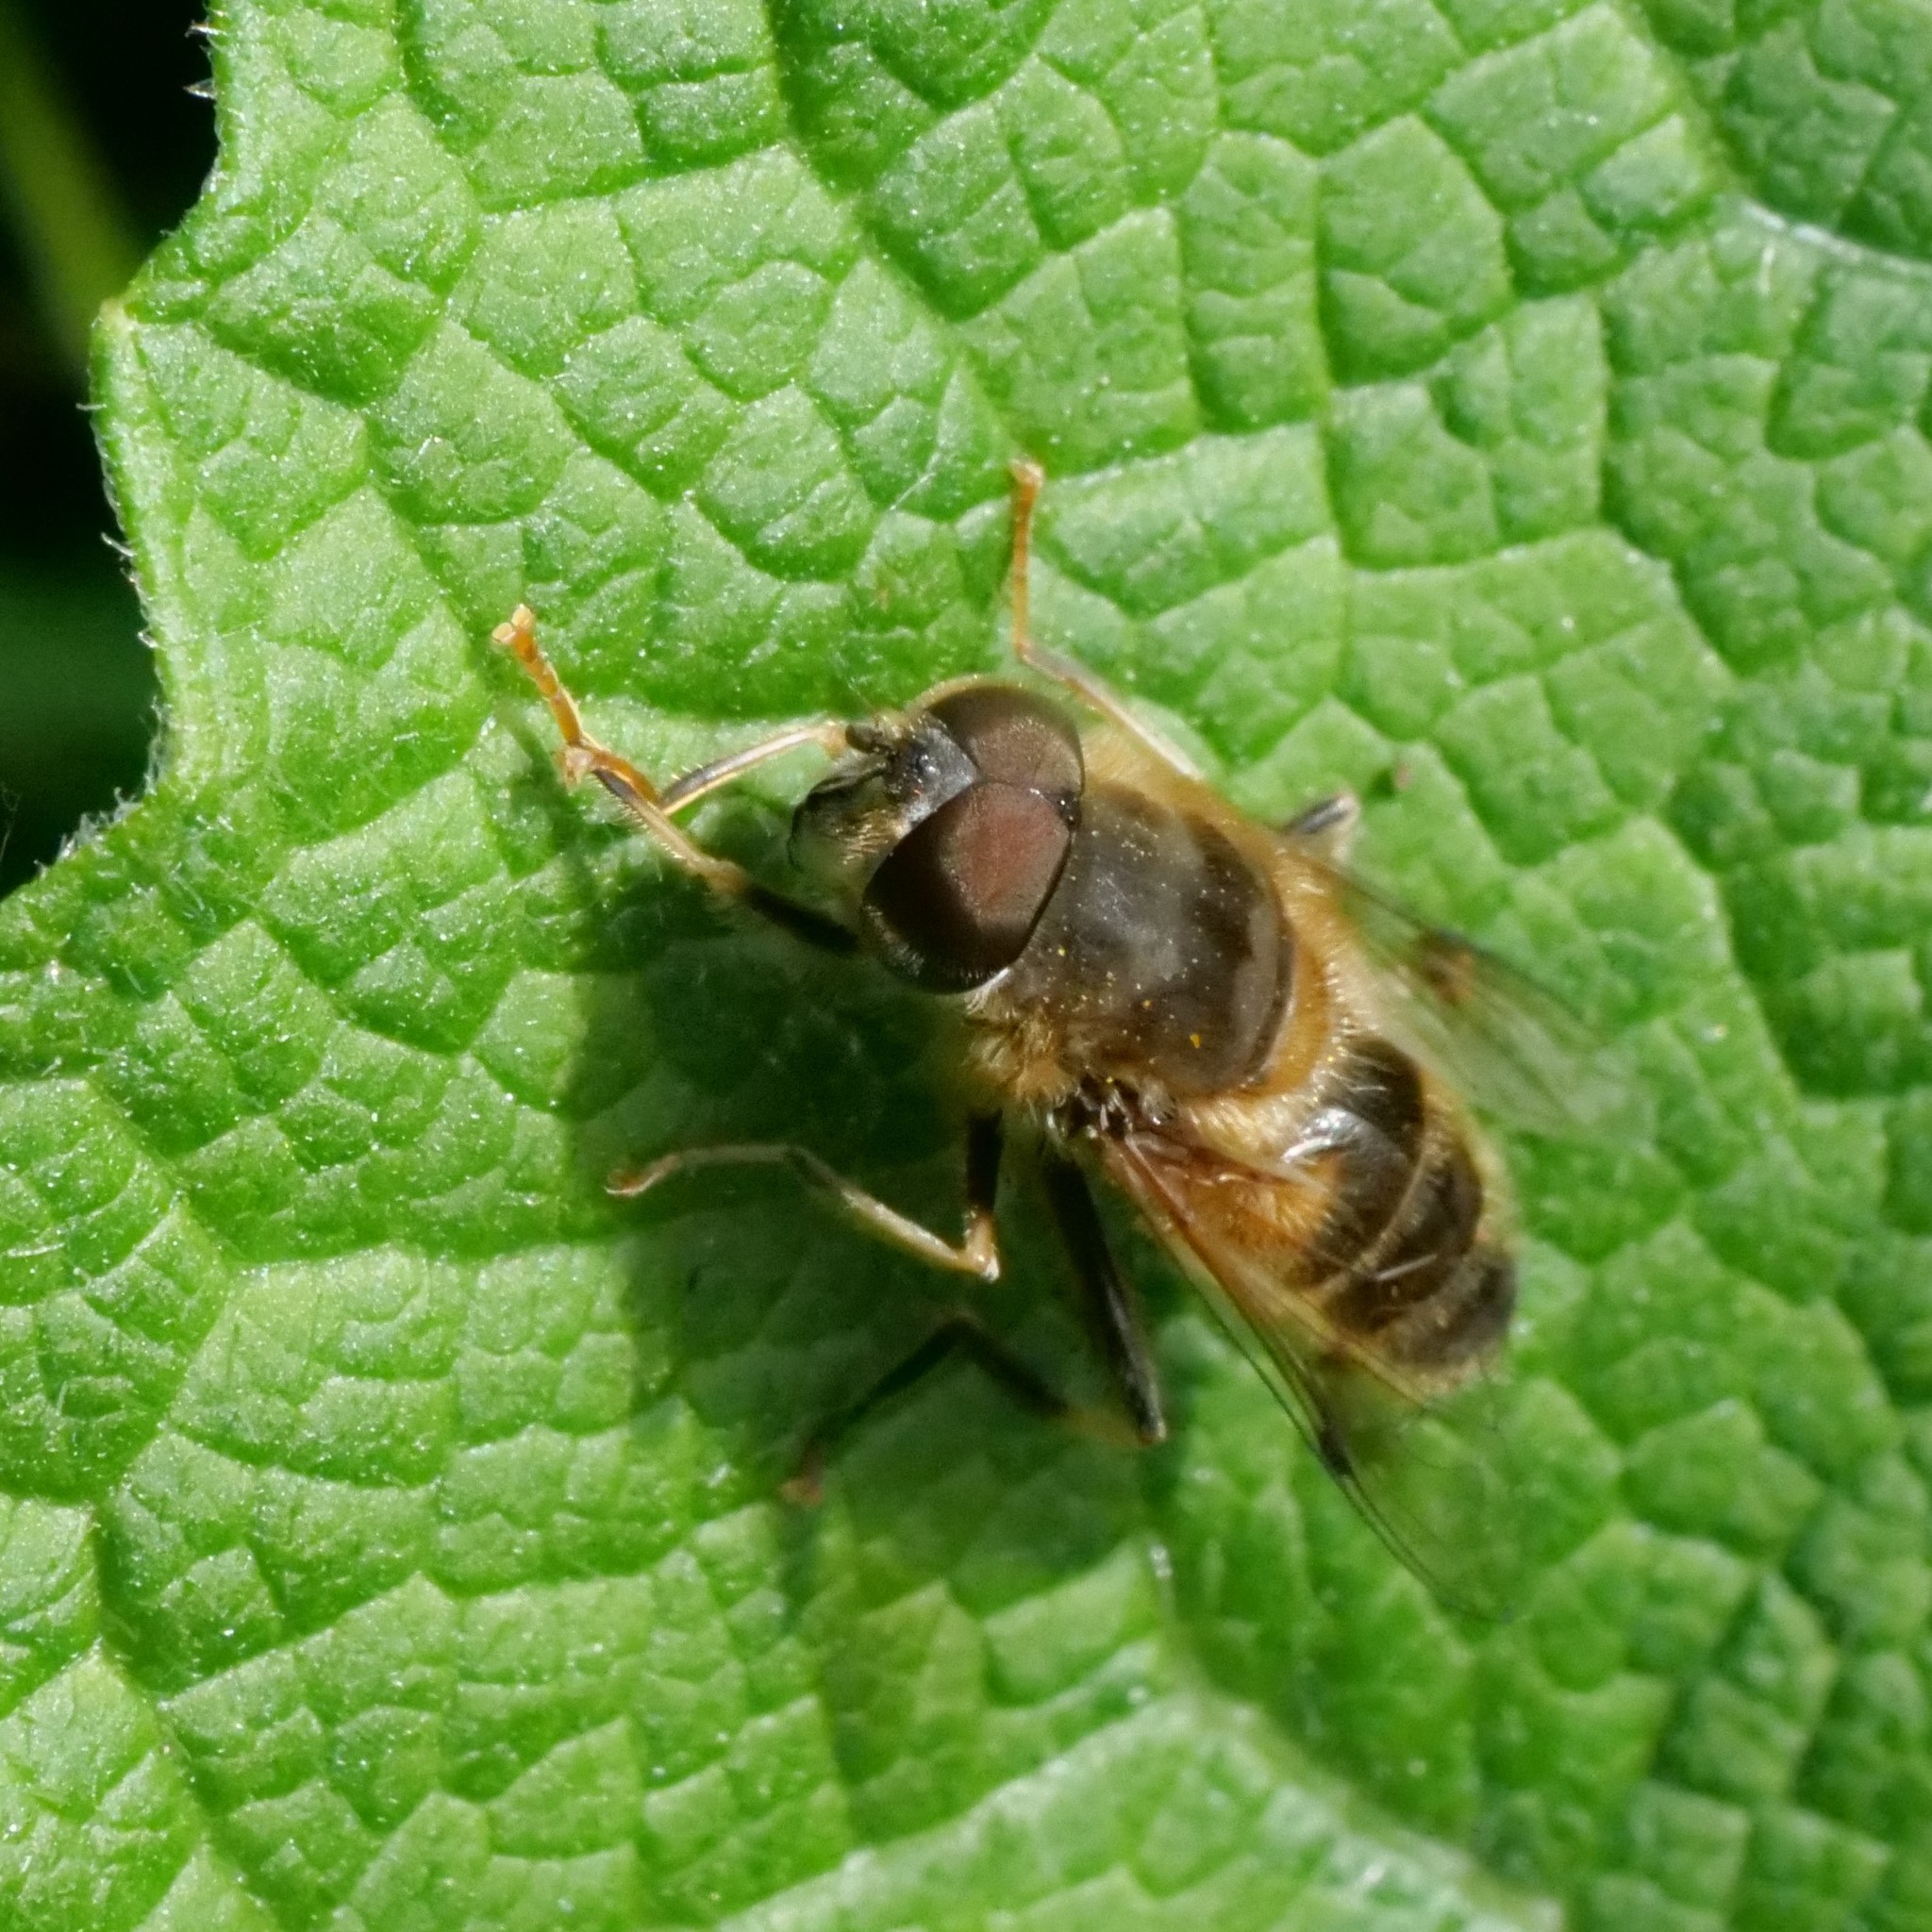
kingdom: Animalia
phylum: Arthropoda
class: Insecta
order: Diptera
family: Syrphidae
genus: Eristalis
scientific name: Eristalis pertinax
